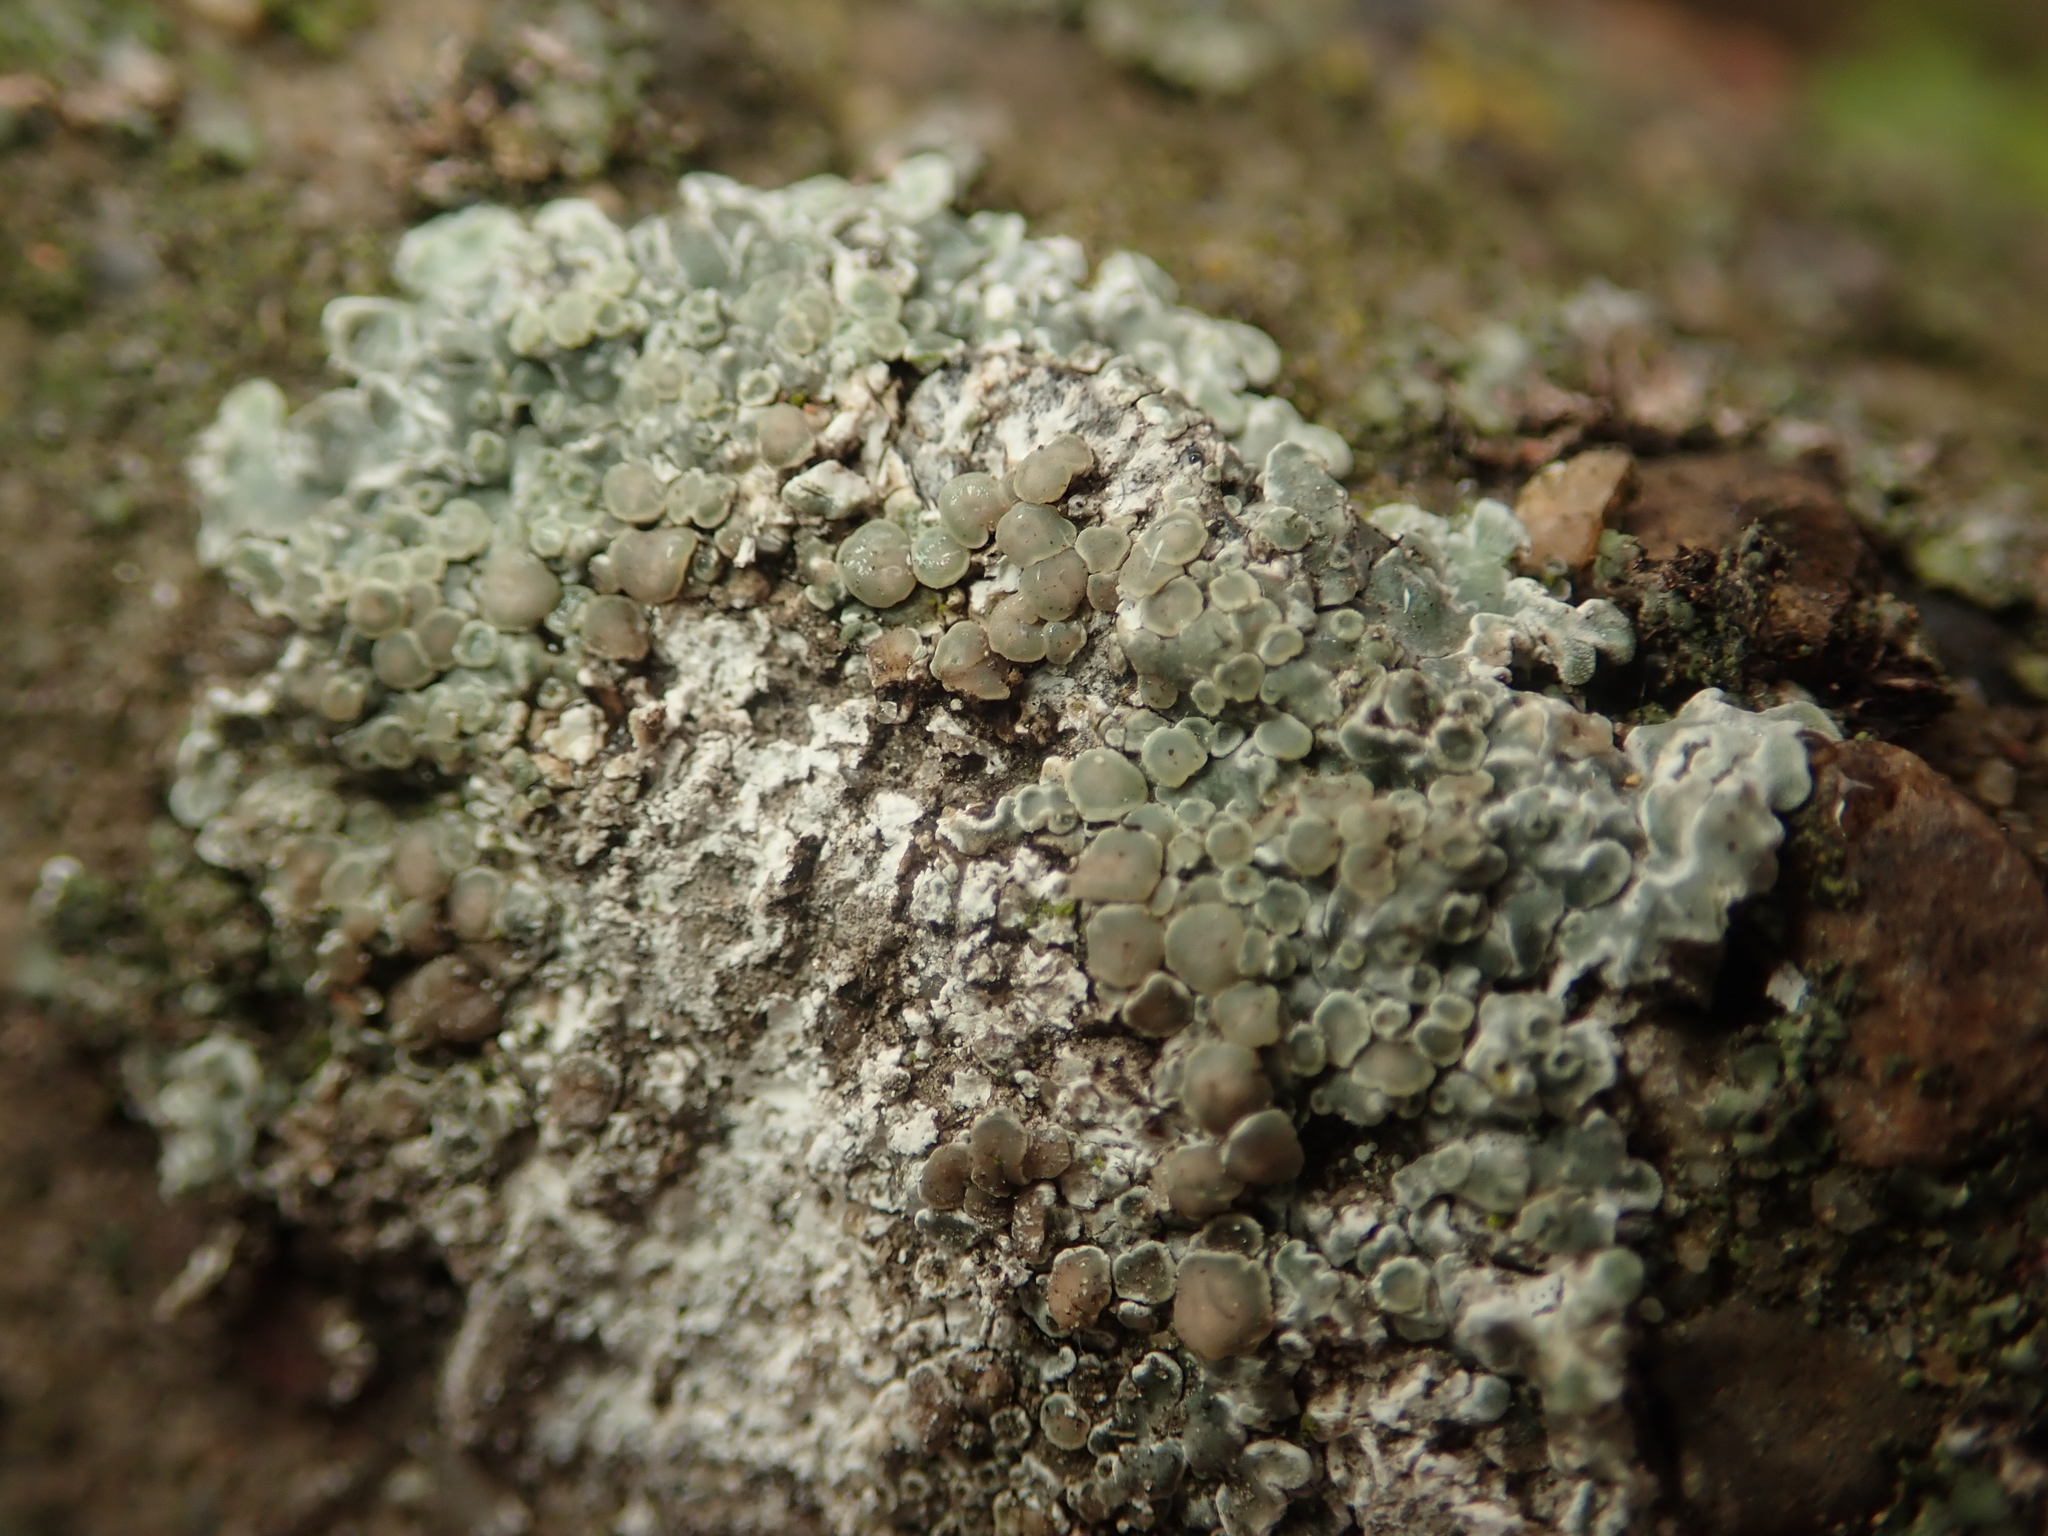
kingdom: Fungi
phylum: Ascomycota
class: Lecanoromycetes
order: Lecanorales
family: Lecanoraceae
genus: Protoparmeliopsis
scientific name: Protoparmeliopsis muralis
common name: Stonewall rim lichen
